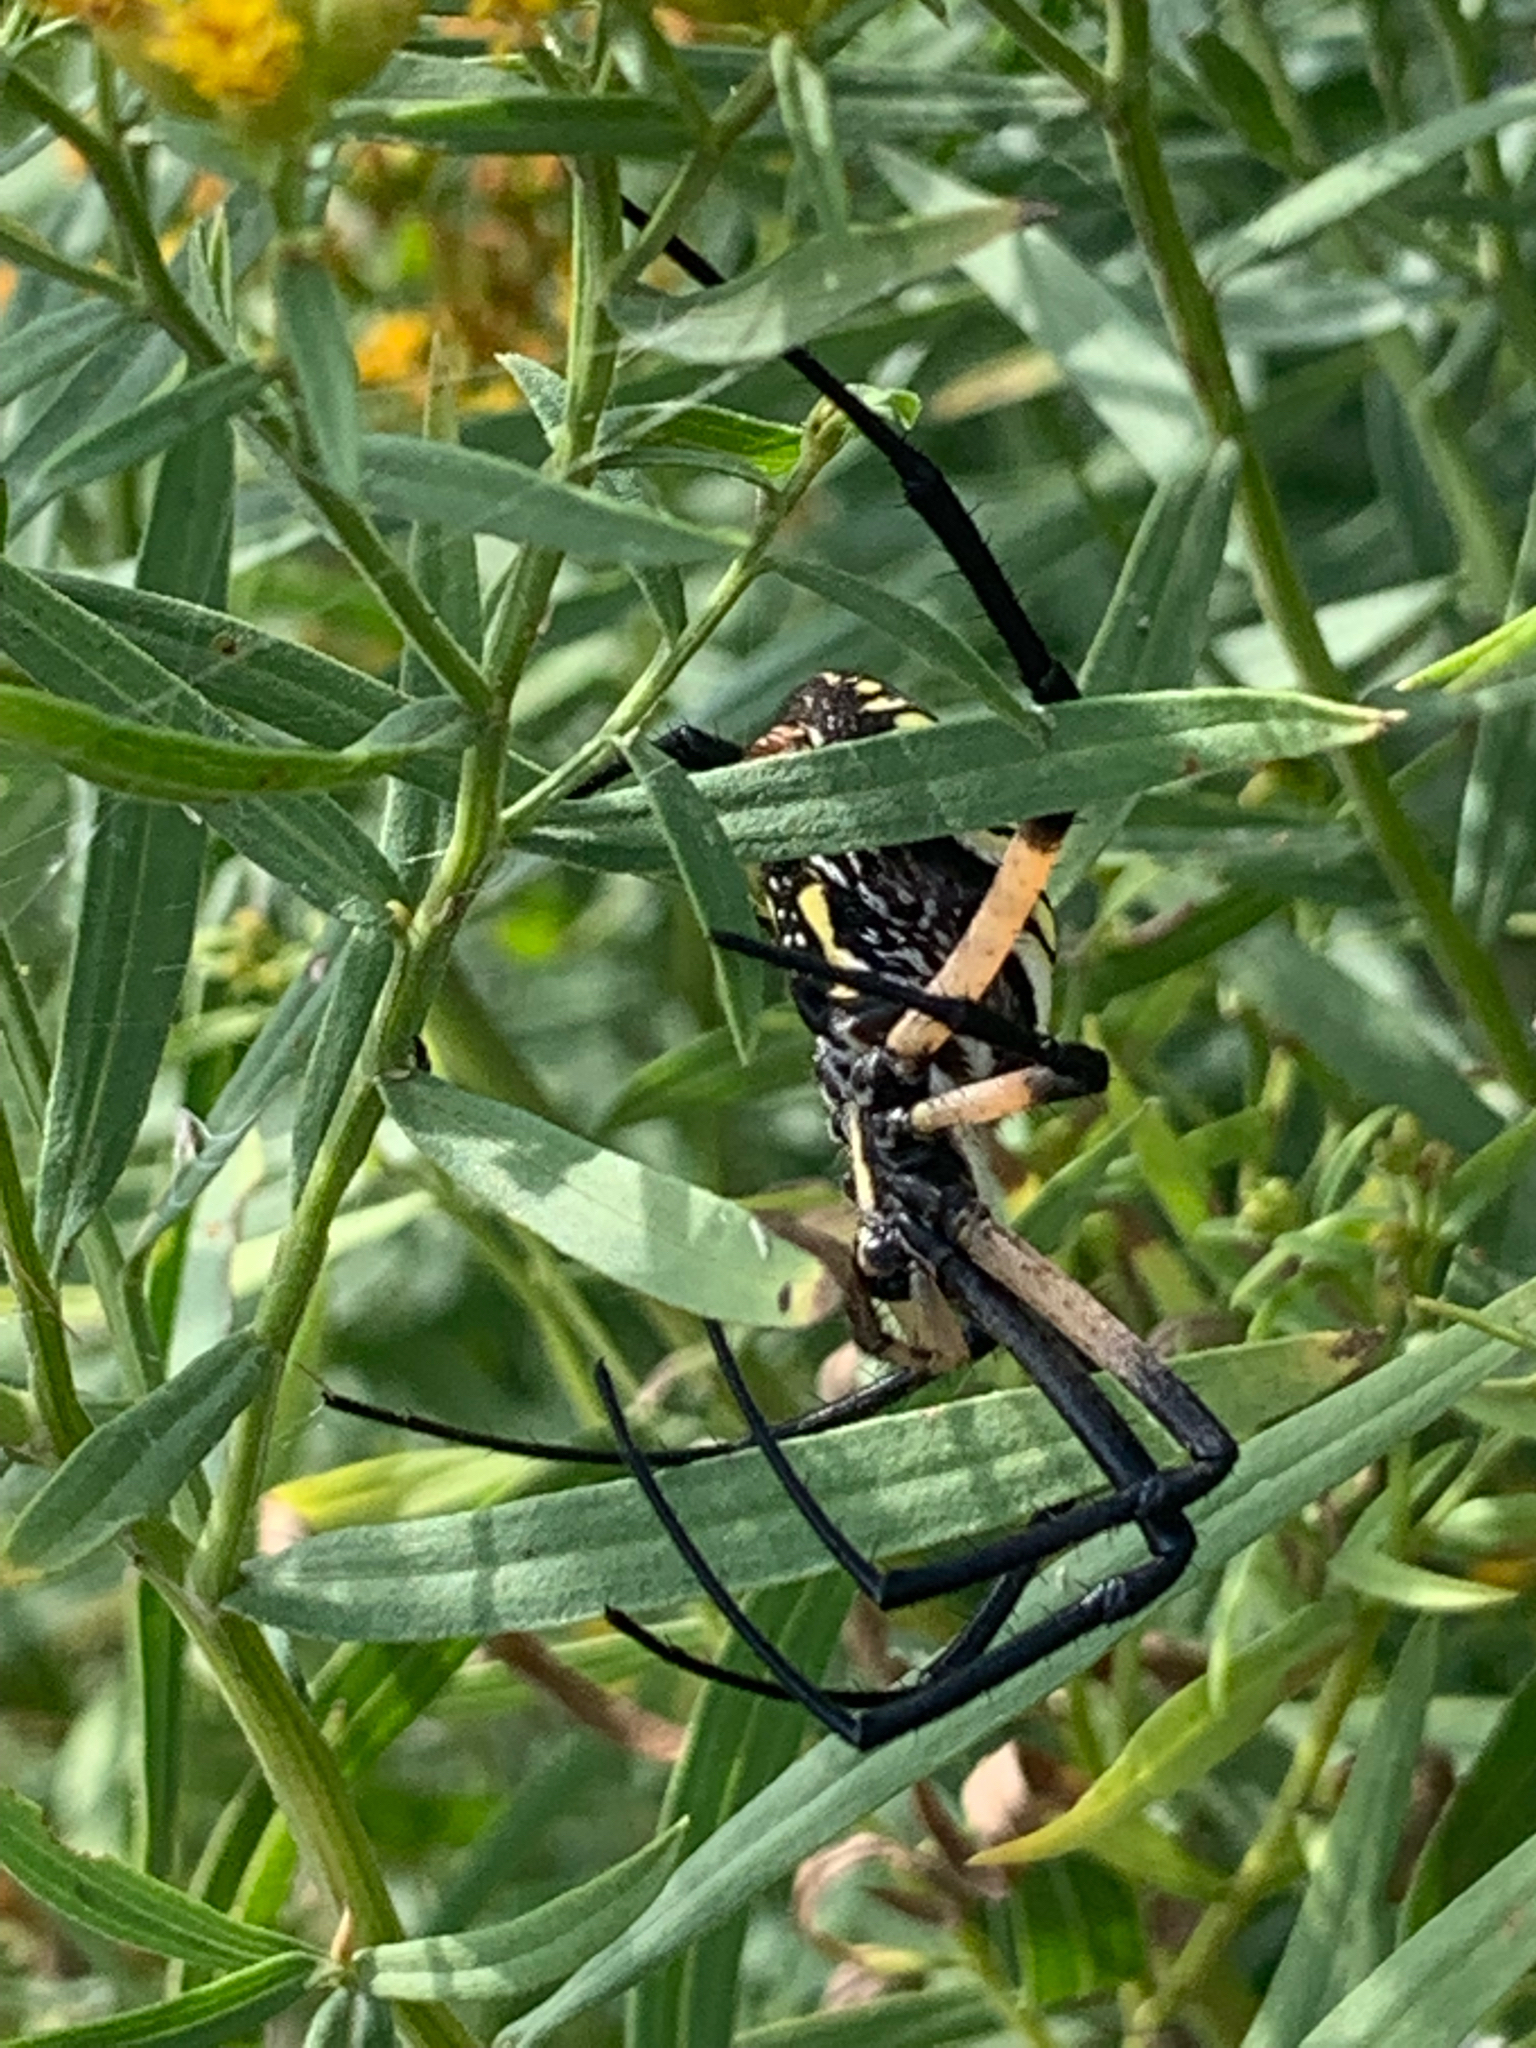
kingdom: Animalia
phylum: Arthropoda
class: Arachnida
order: Araneae
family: Araneidae
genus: Argiope
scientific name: Argiope aurantia
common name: Orb weavers
